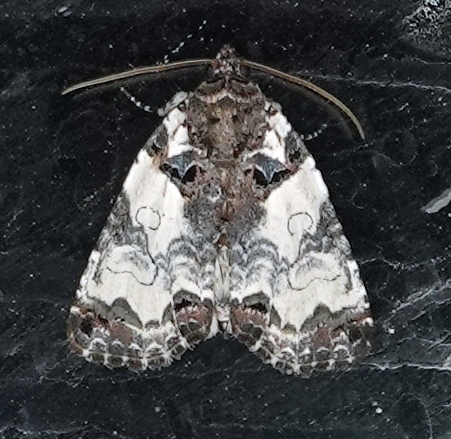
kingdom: Animalia
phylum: Arthropoda
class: Insecta
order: Lepidoptera
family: Noctuidae
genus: Cerma
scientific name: Cerma cerintha
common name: Tufted bird-dropping moth
